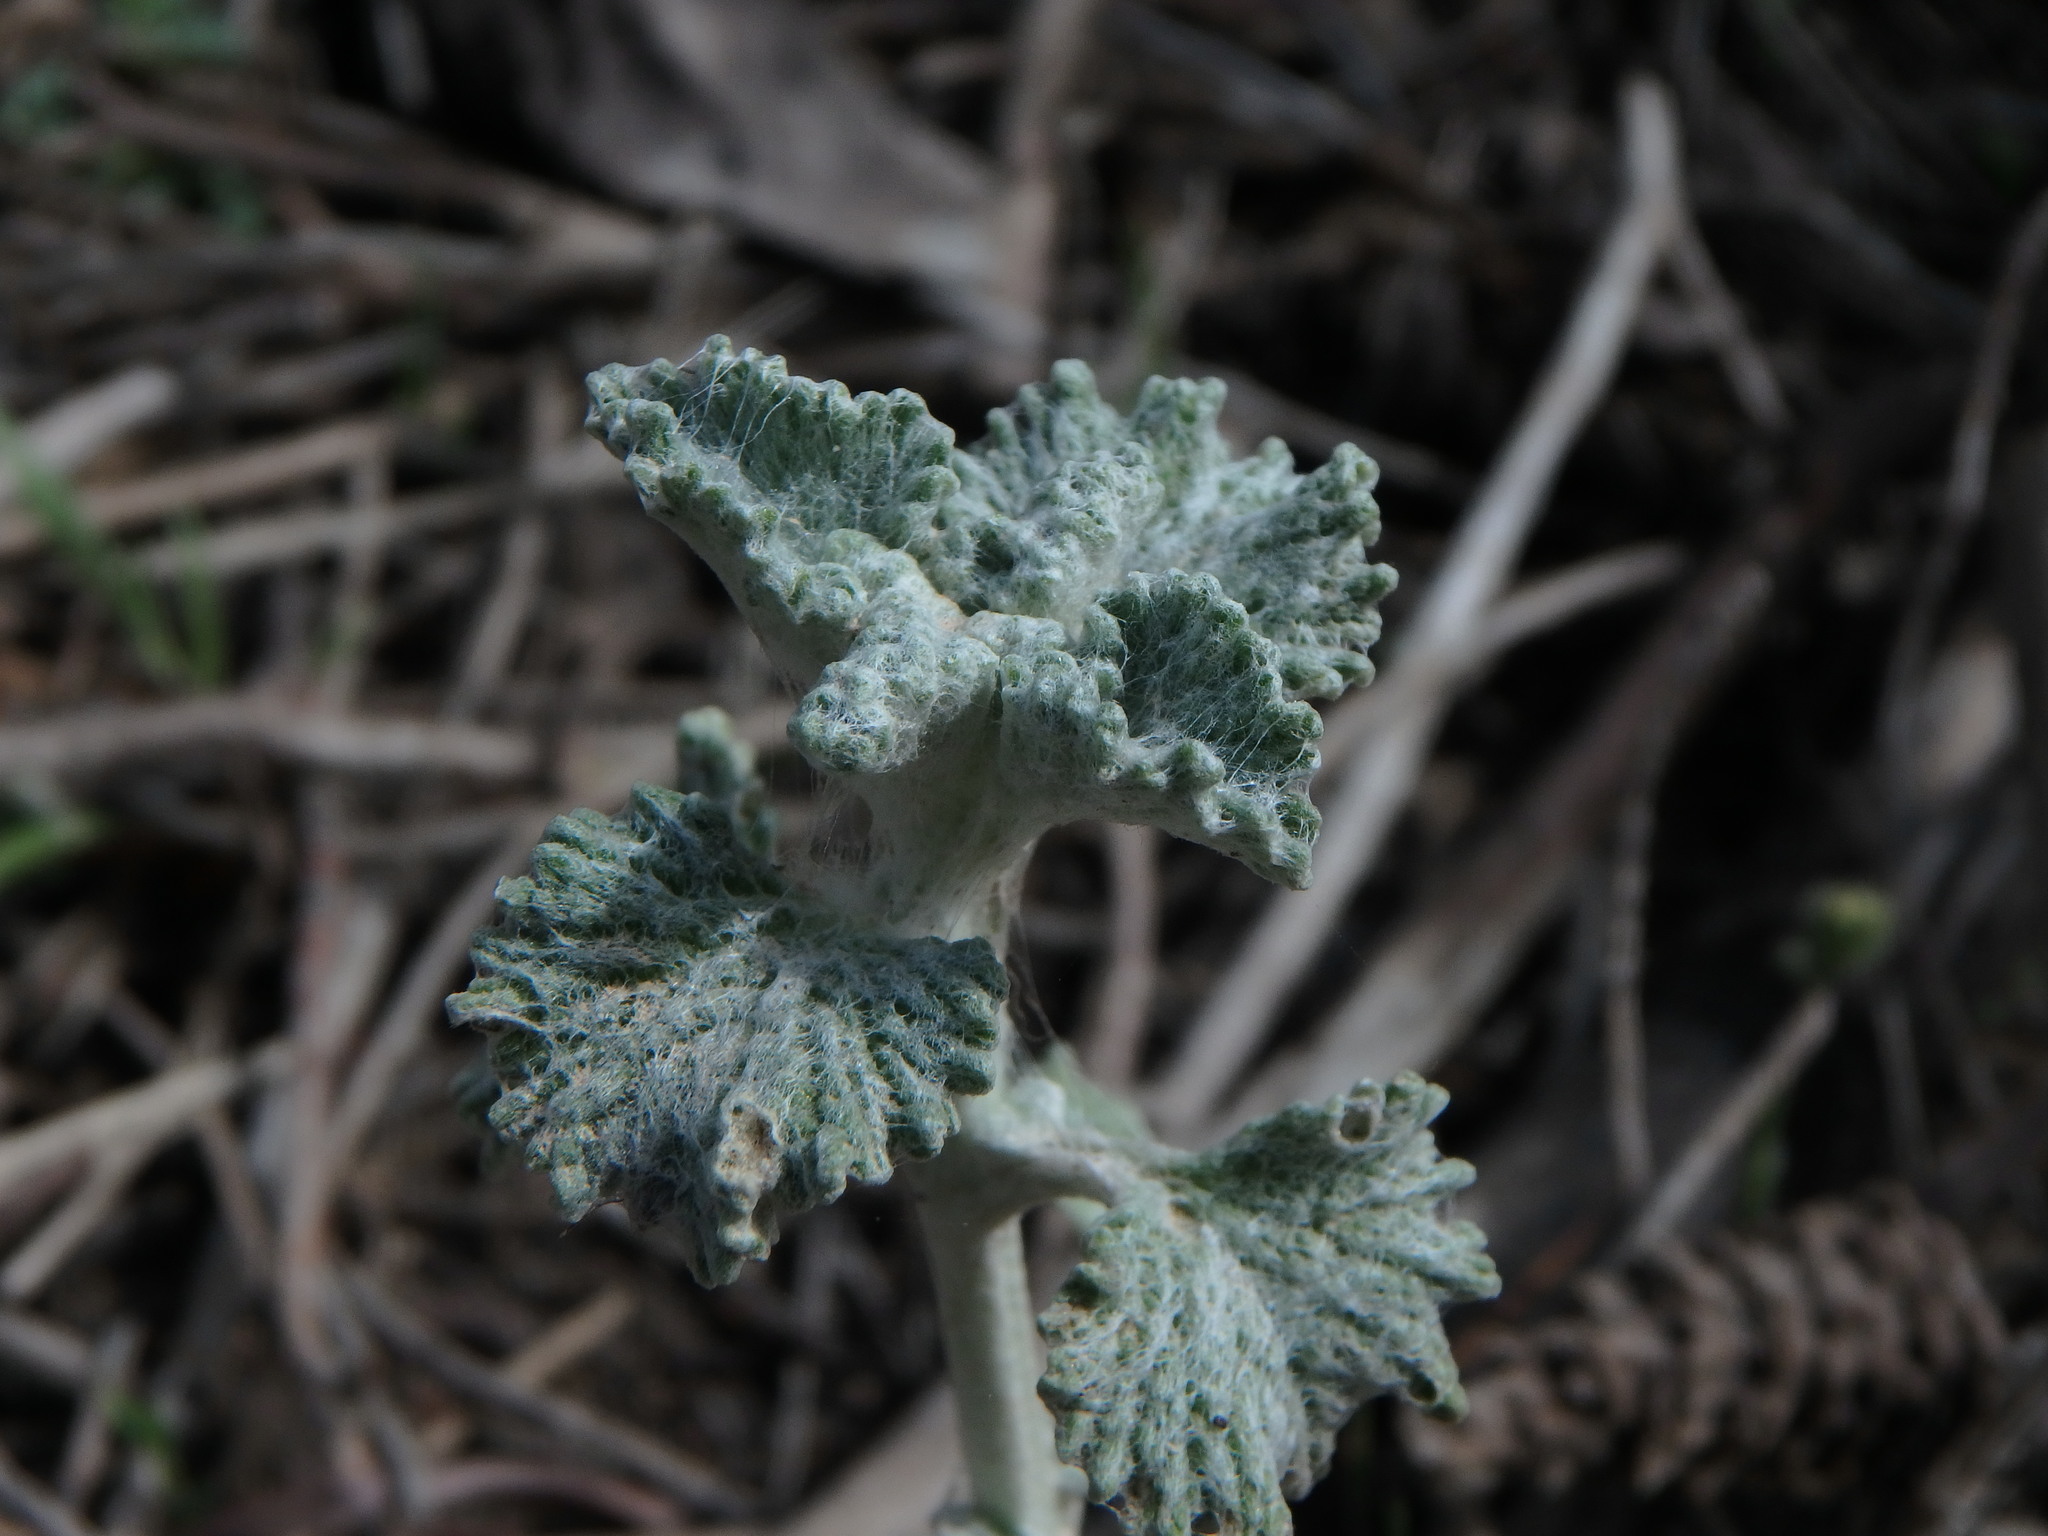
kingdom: Plantae
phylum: Tracheophyta
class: Magnoliopsida
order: Lamiales
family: Lamiaceae
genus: Marrubium
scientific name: Marrubium vulgare
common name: Horehound
